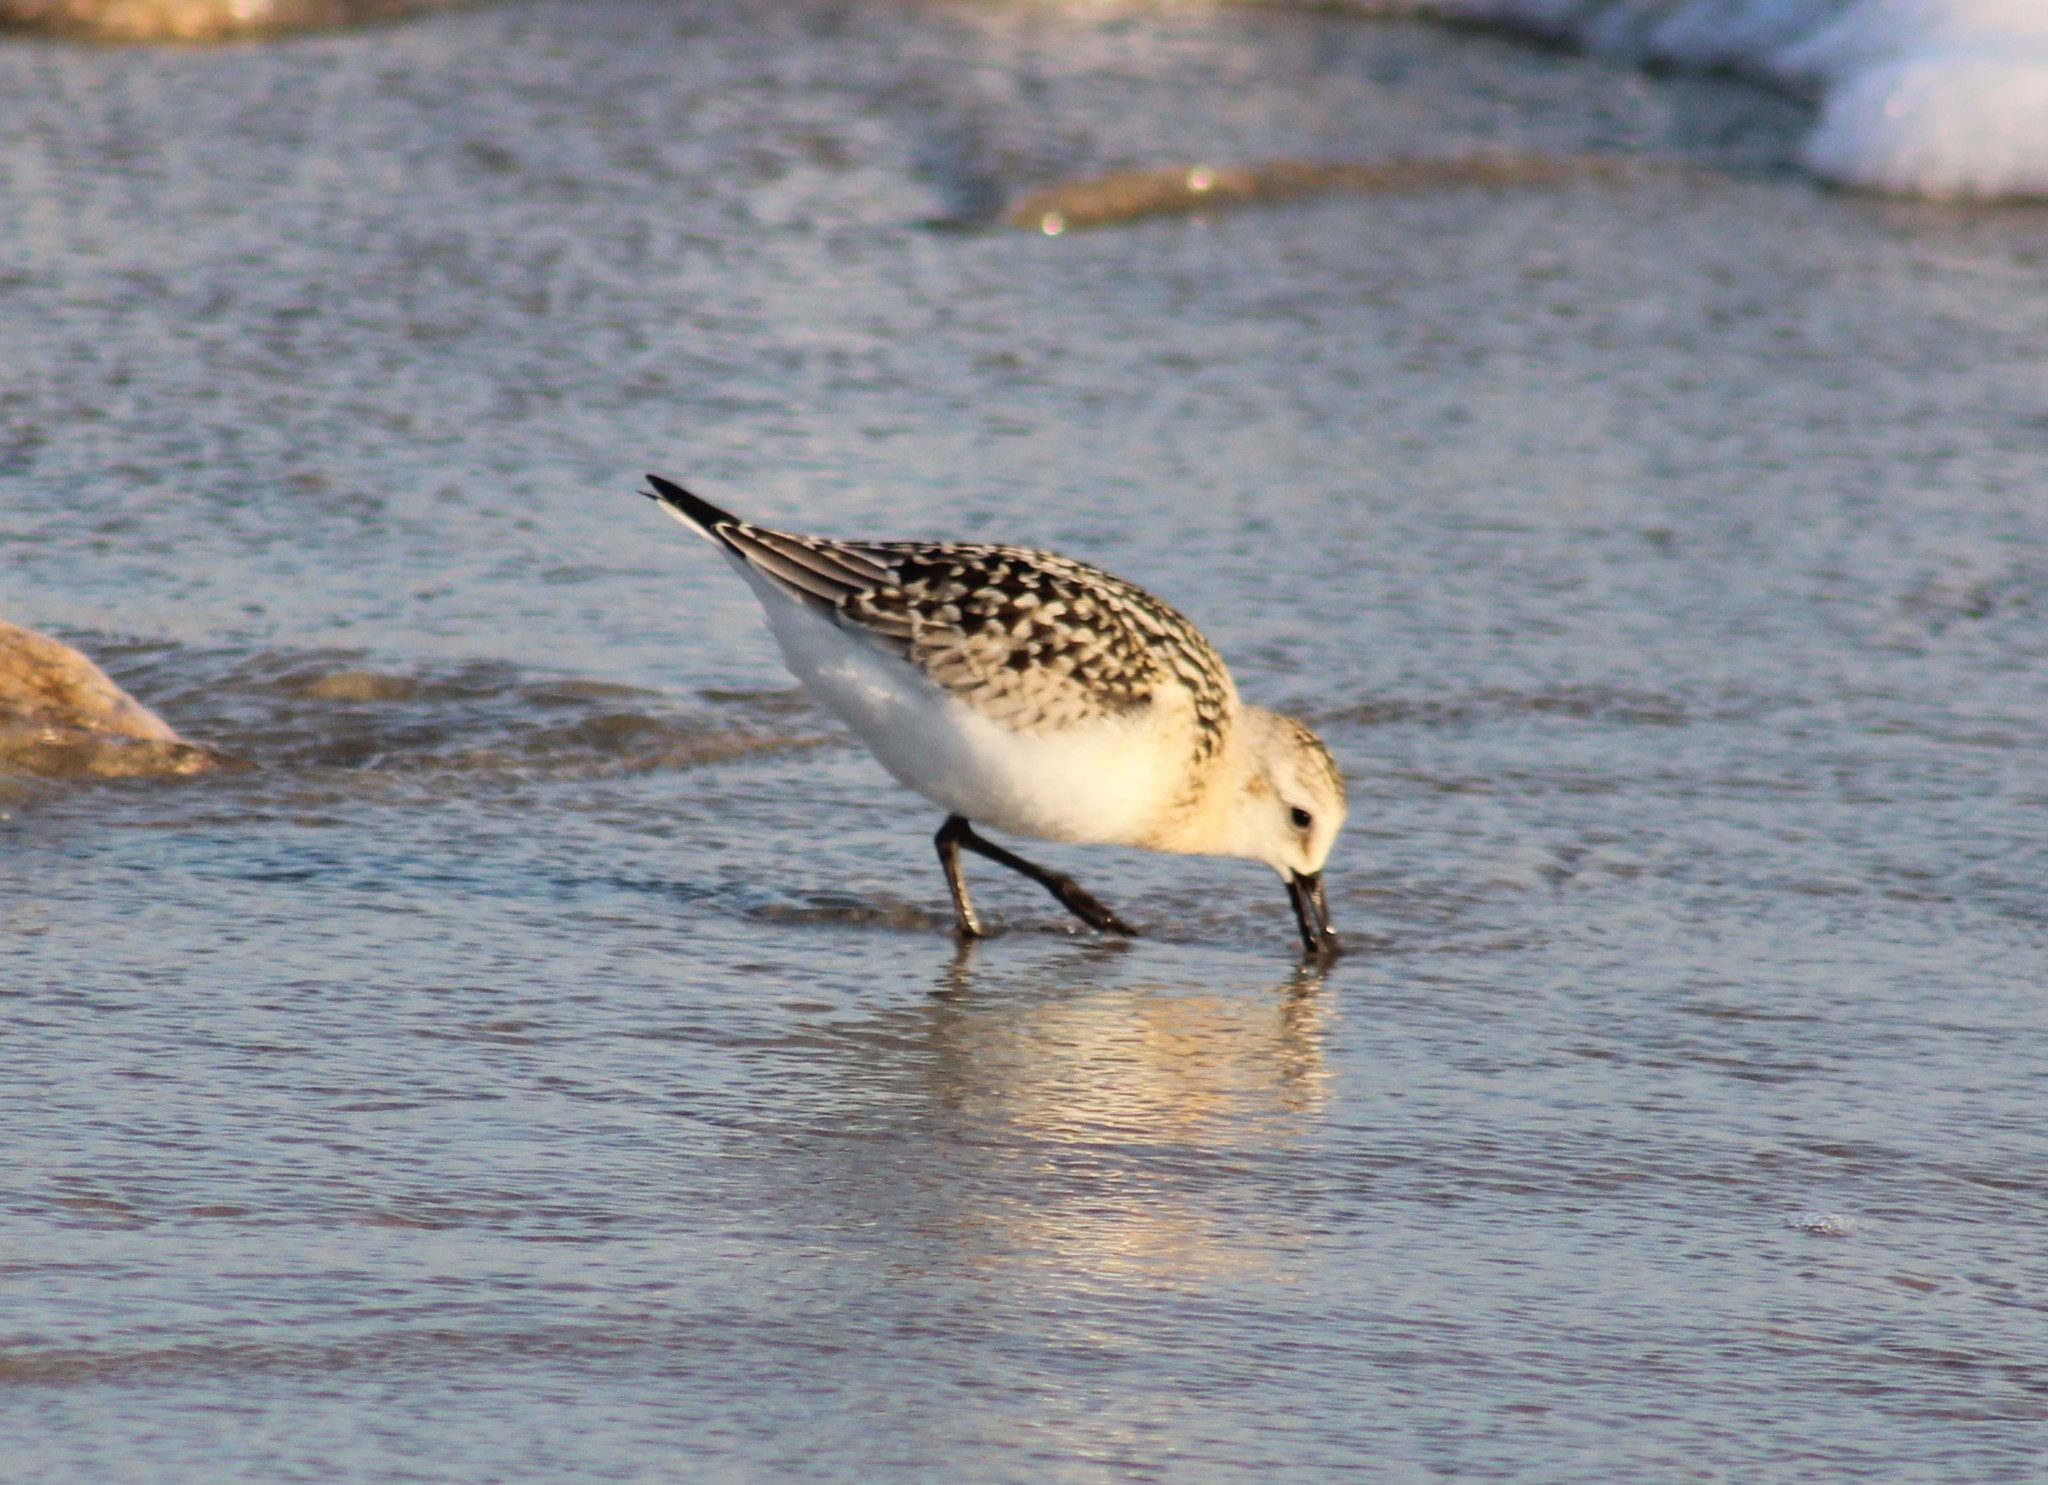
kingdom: Animalia
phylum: Chordata
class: Aves
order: Charadriiformes
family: Scolopacidae
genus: Calidris
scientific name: Calidris alba
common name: Sanderling
